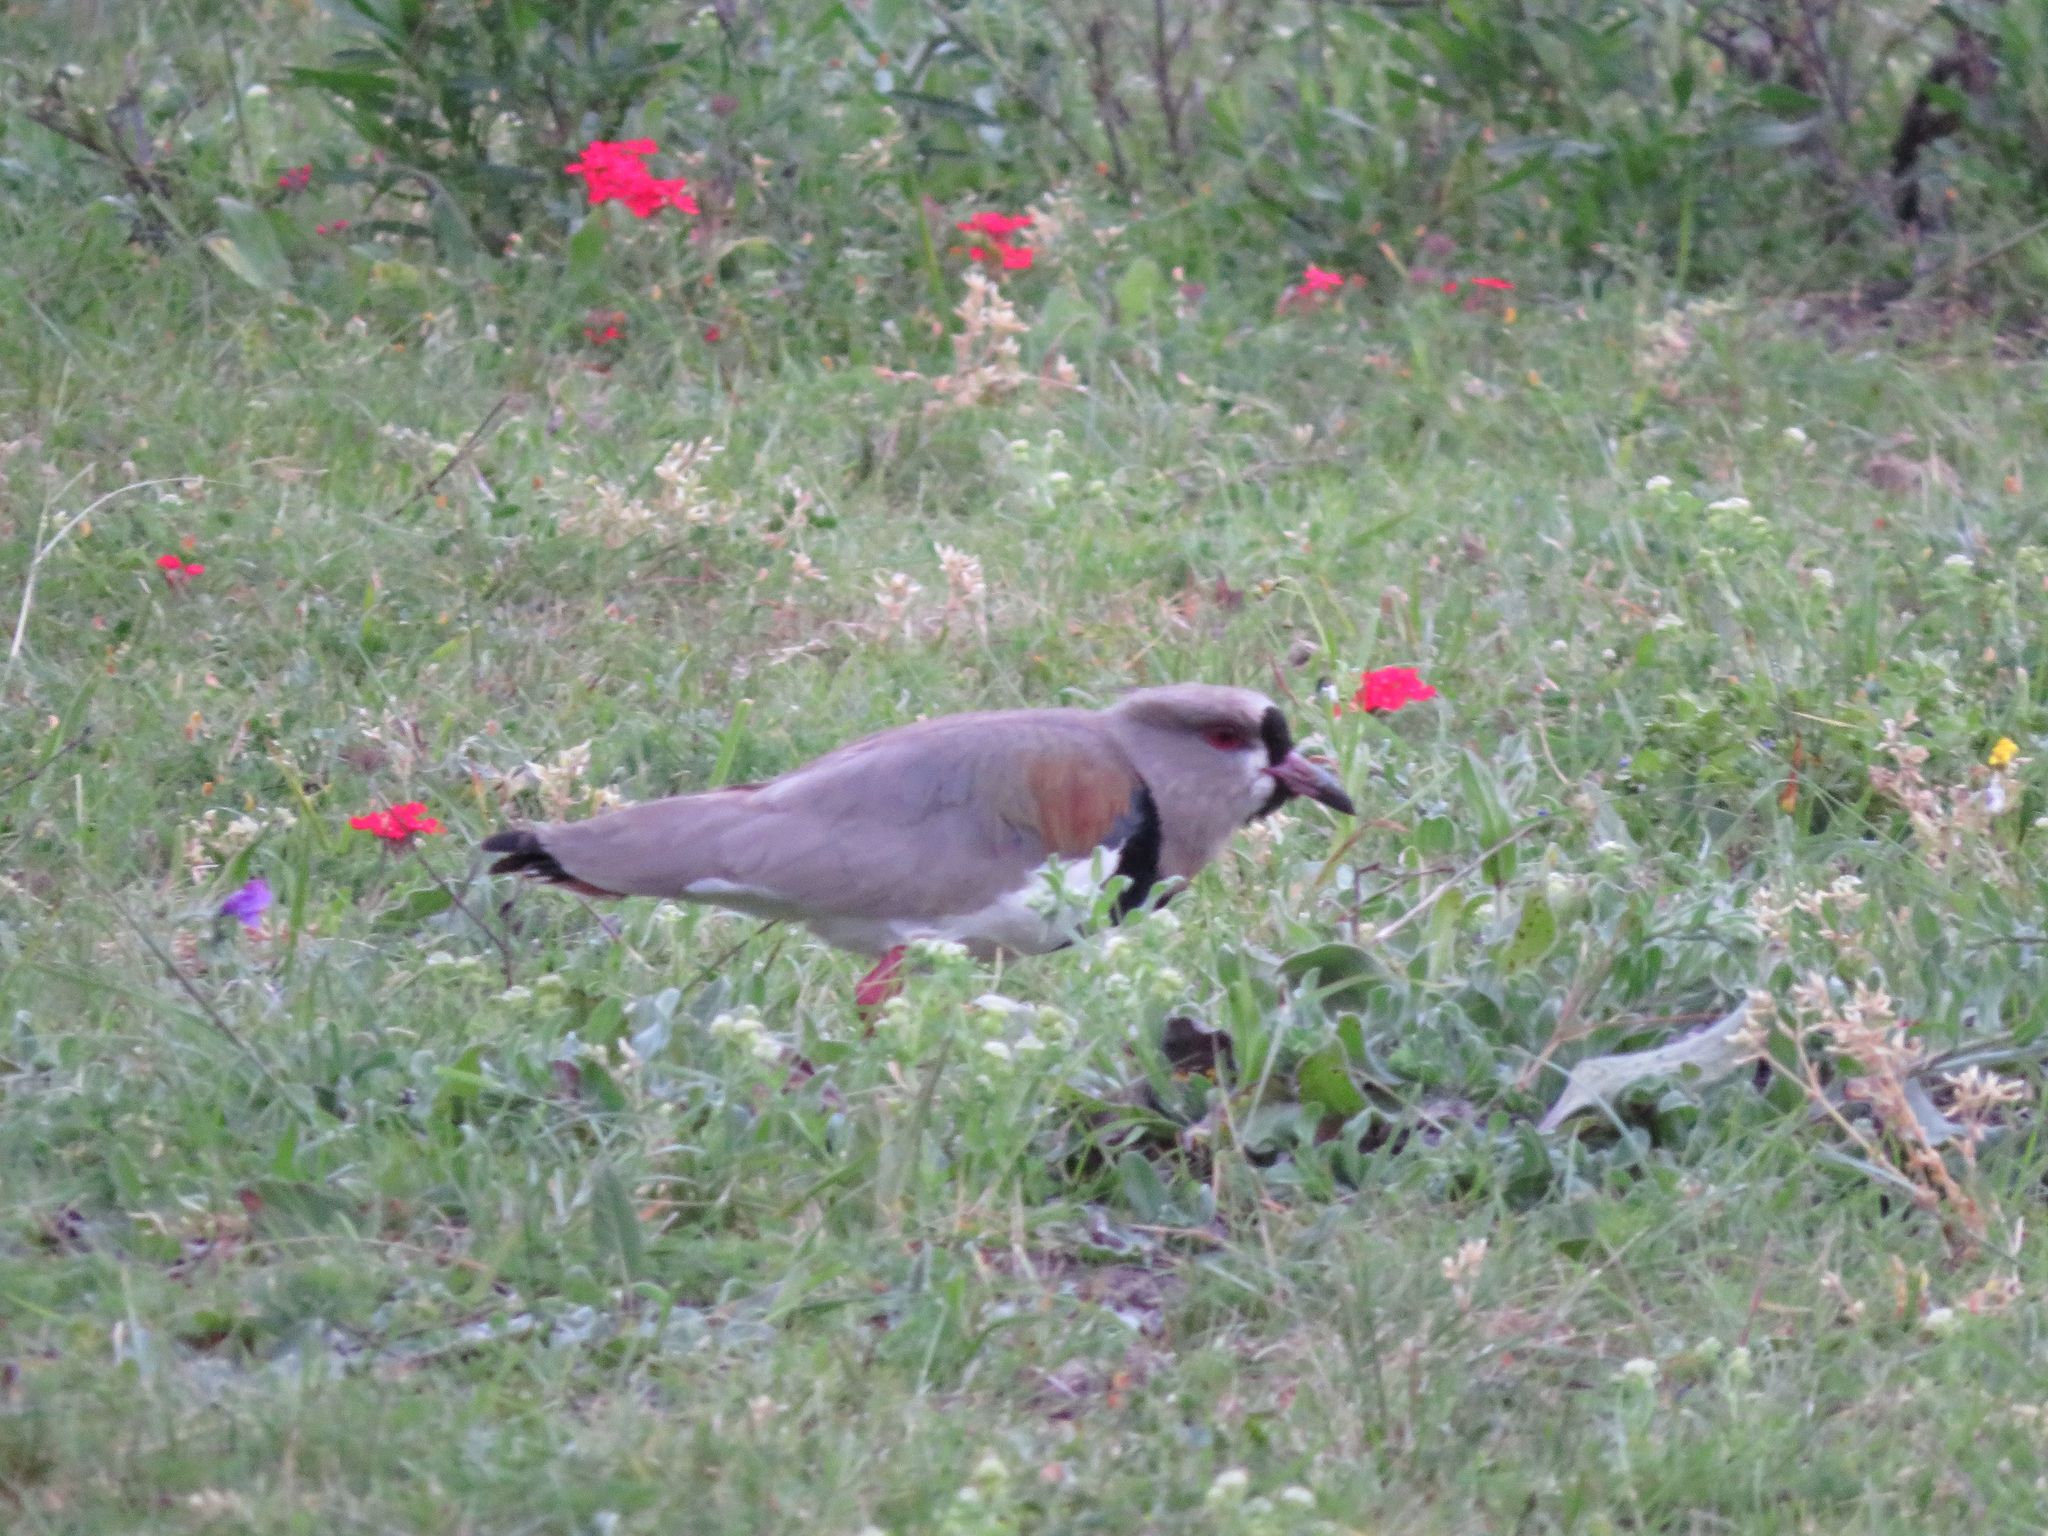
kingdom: Animalia
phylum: Chordata
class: Aves
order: Charadriiformes
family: Charadriidae
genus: Vanellus
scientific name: Vanellus chilensis
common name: Southern lapwing
